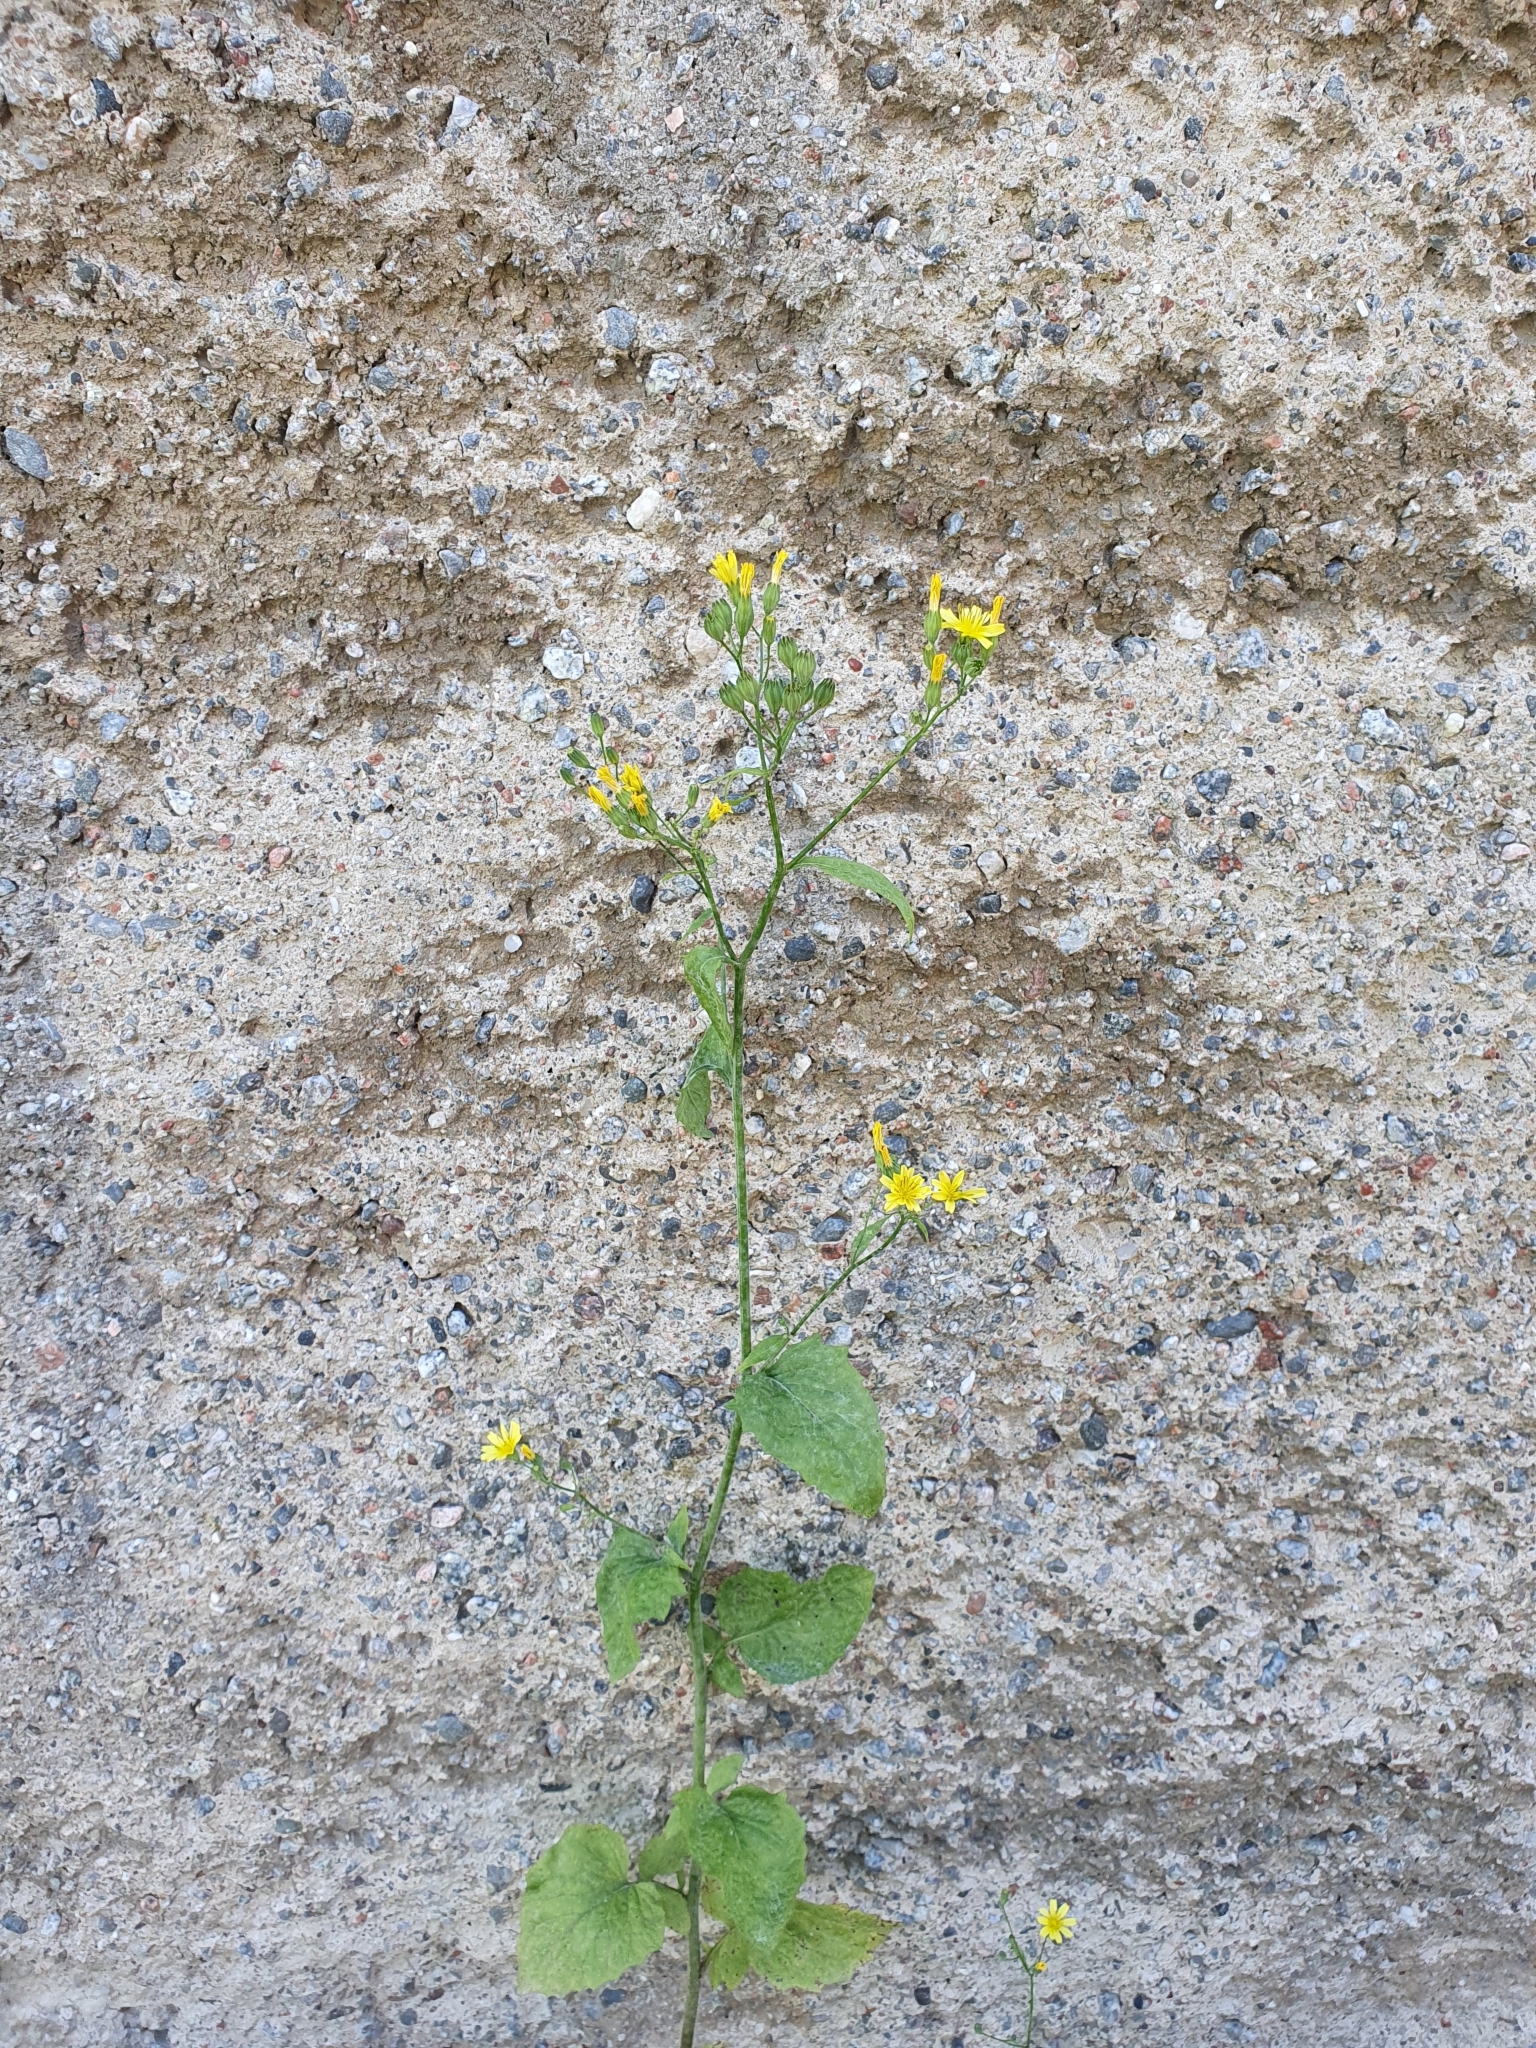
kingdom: Plantae
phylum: Tracheophyta
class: Magnoliopsida
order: Asterales
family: Asteraceae
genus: Lapsana
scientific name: Lapsana communis
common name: Nipplewort
